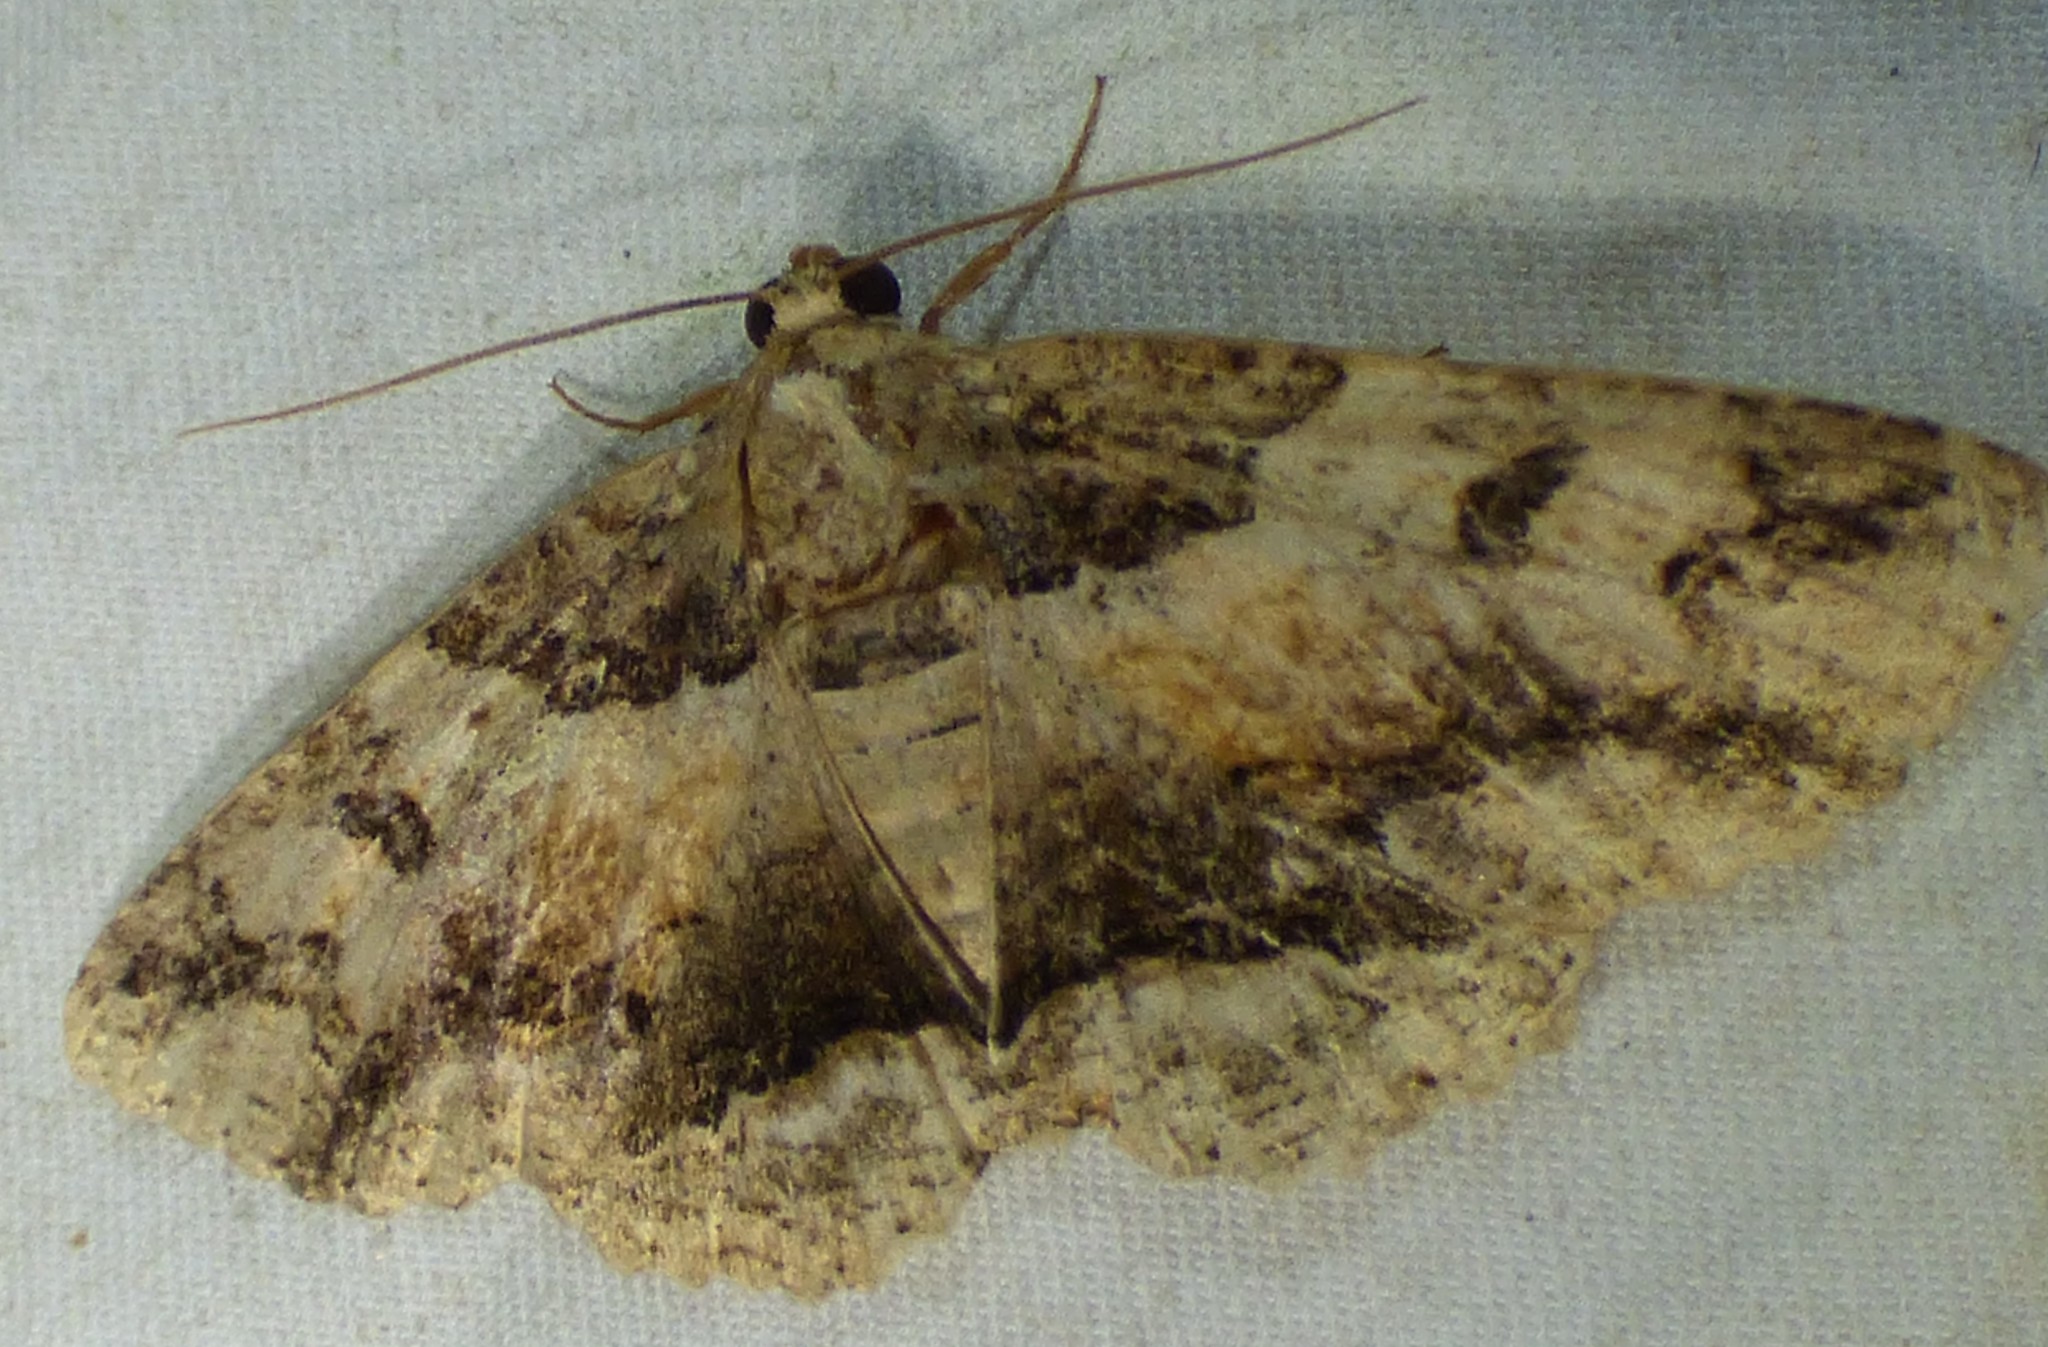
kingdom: Animalia
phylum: Arthropoda
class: Insecta
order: Lepidoptera
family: Erebidae
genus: Zale
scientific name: Zale galbanata
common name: Maple zale
